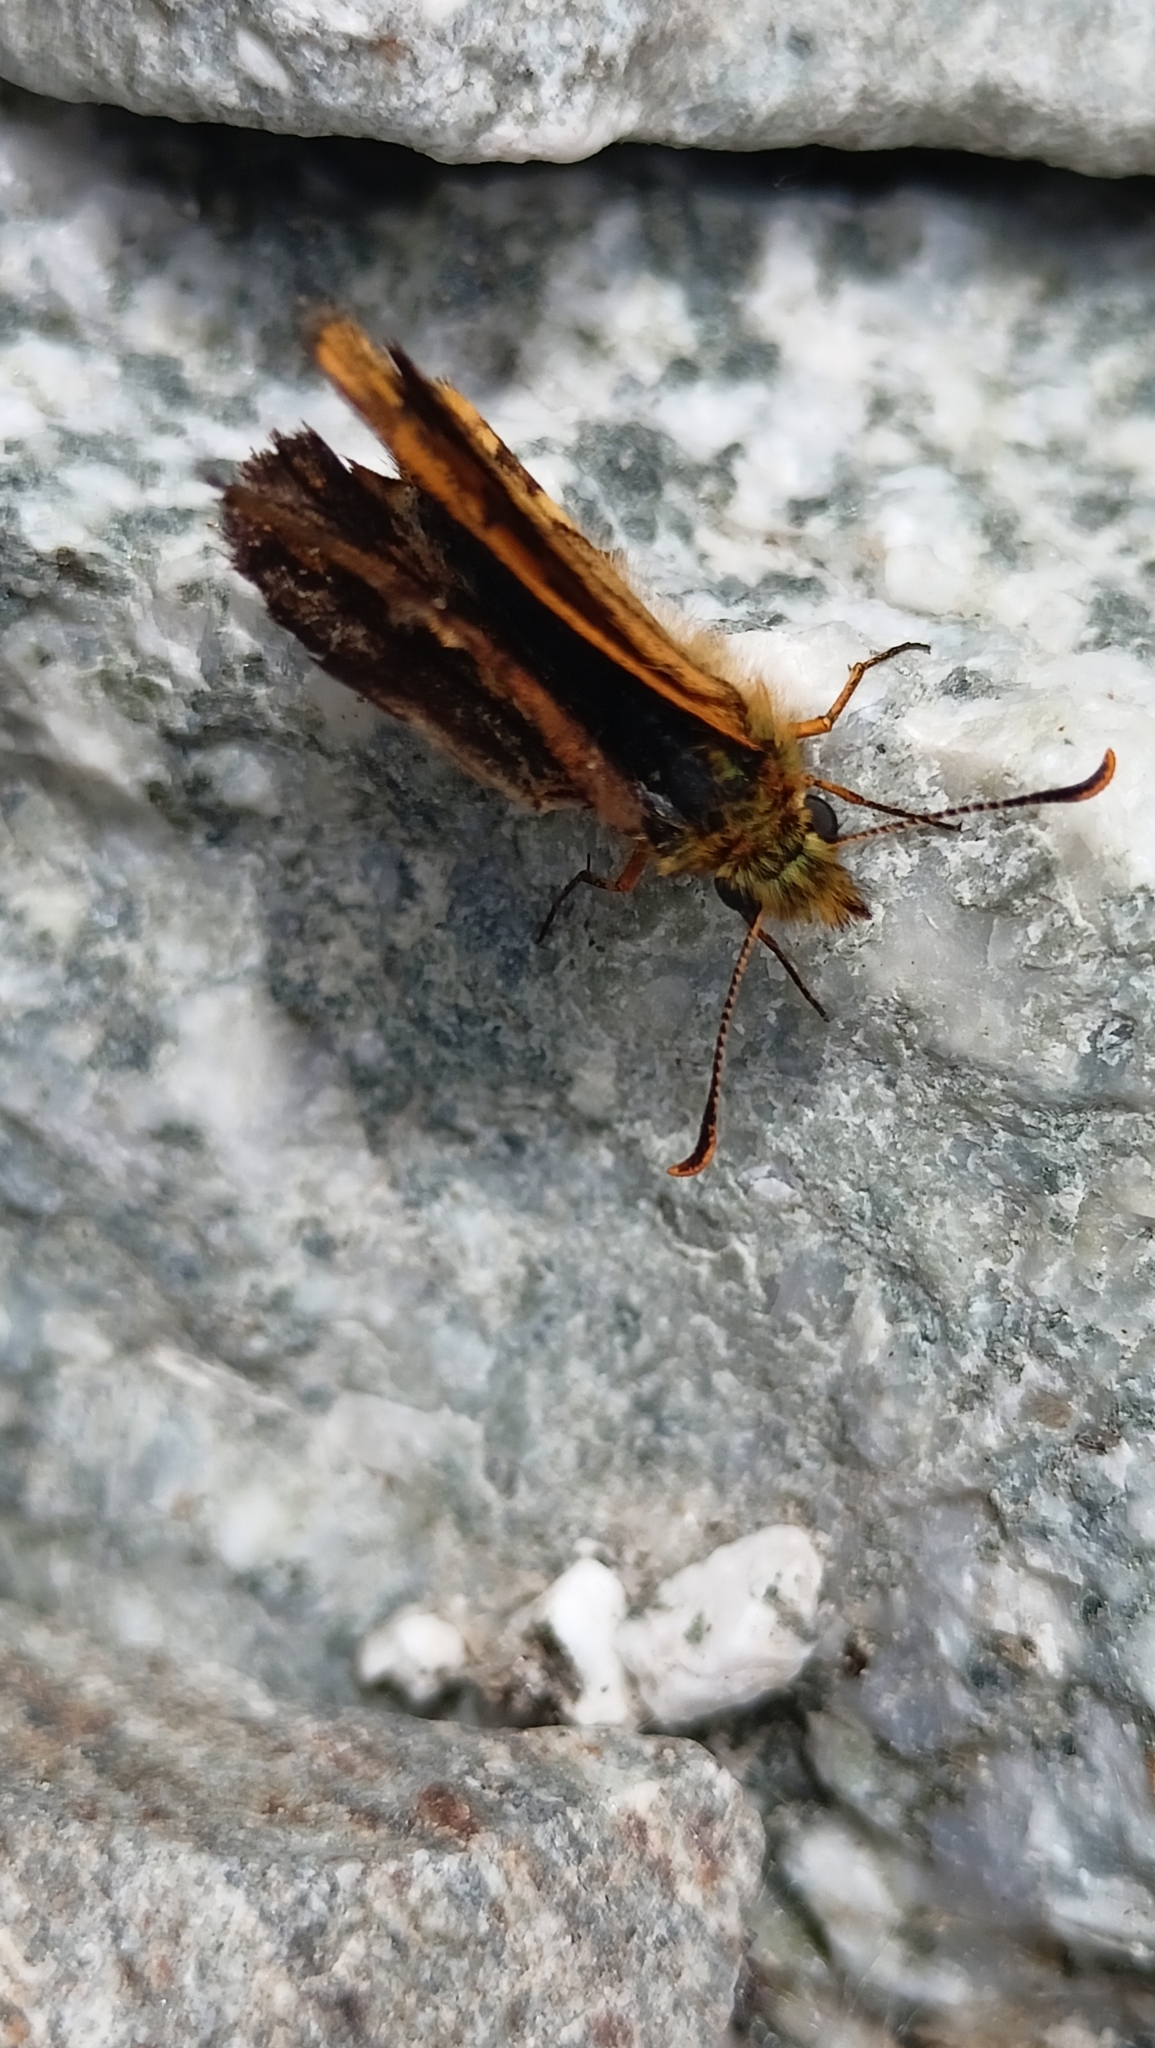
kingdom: Animalia
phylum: Arthropoda
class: Insecta
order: Lepidoptera
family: Hesperiidae
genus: Carterocephalus
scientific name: Carterocephalus palaemon
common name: Chequered skipper
